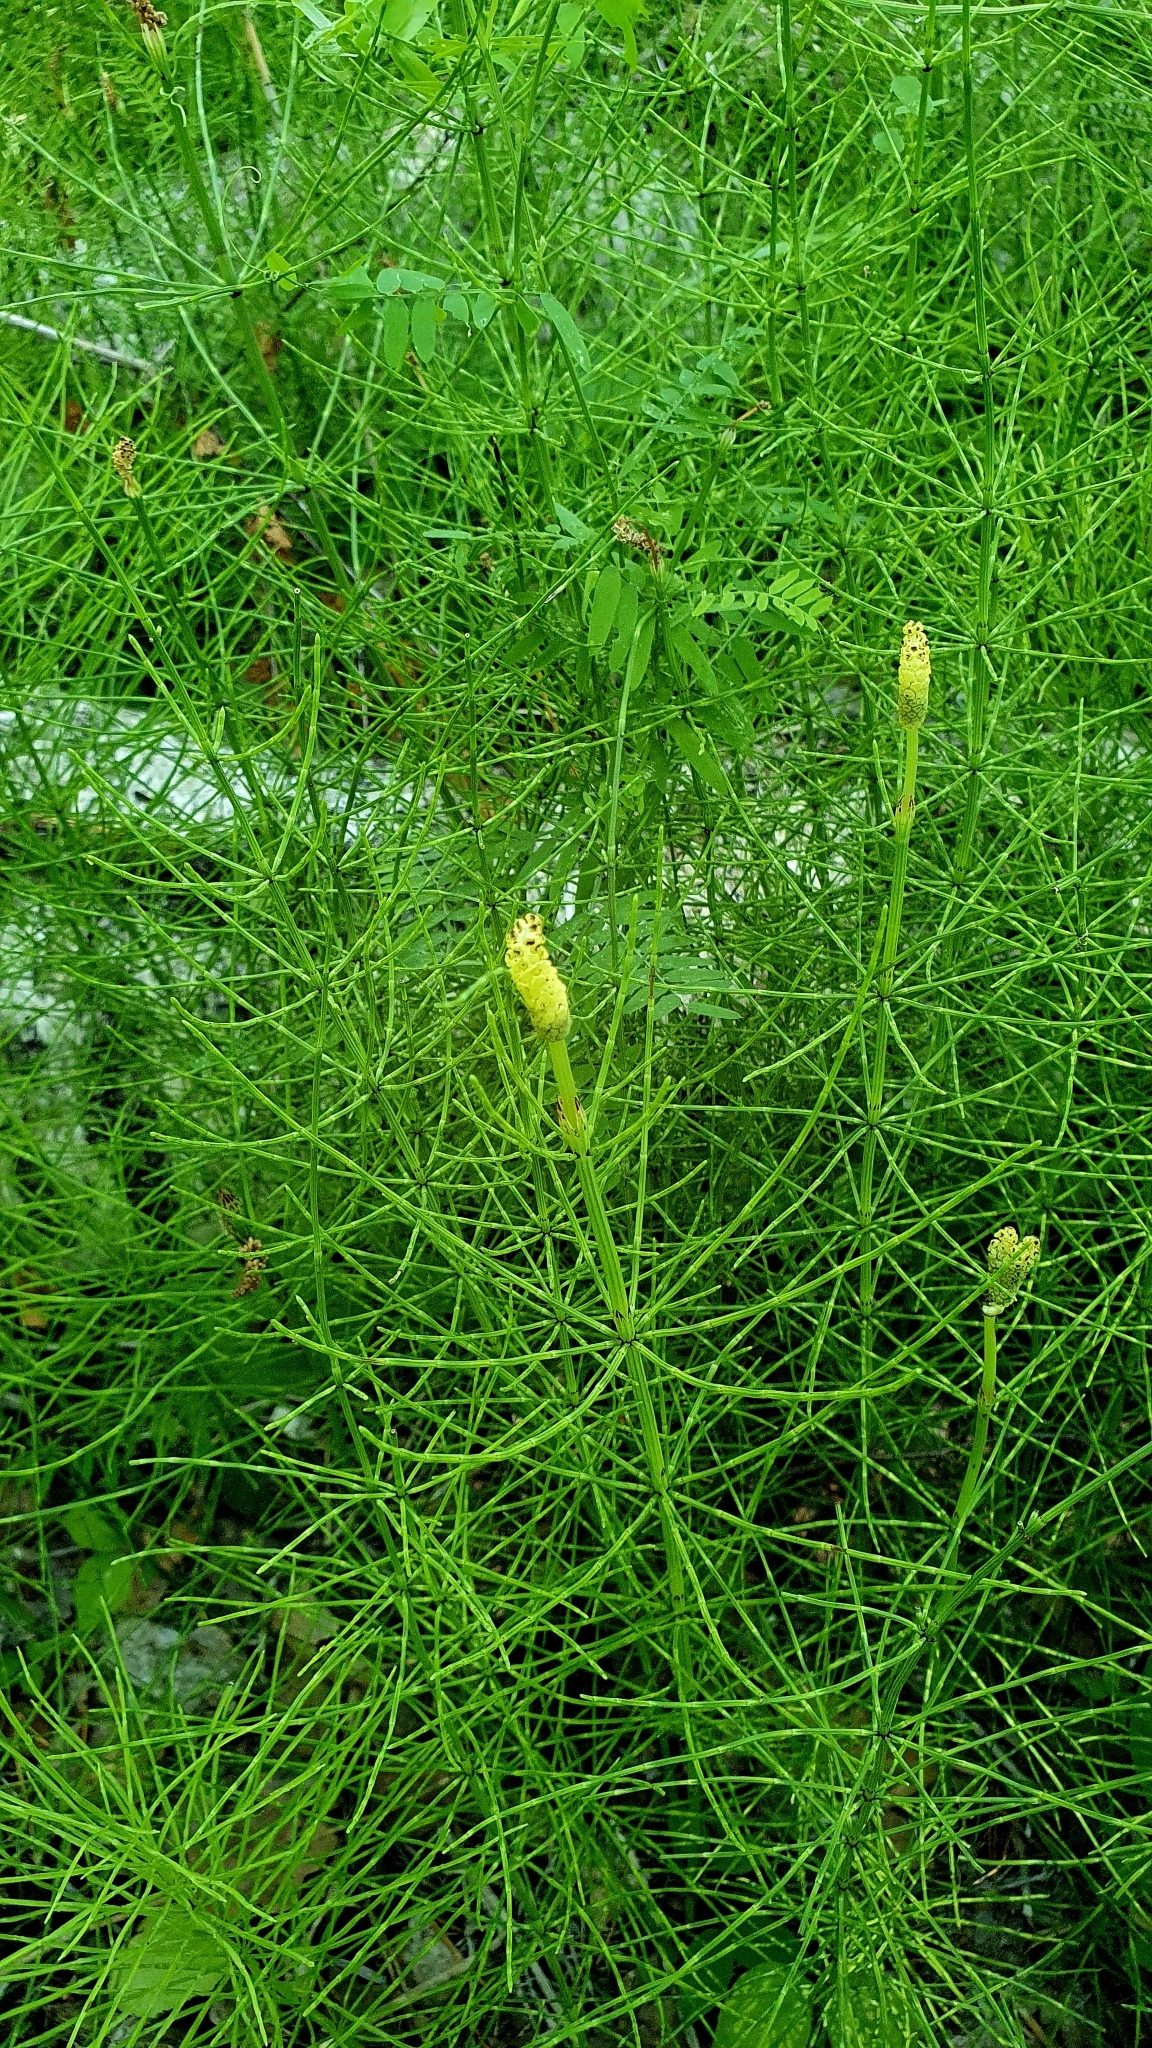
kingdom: Plantae
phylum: Tracheophyta
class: Polypodiopsida
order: Equisetales
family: Equisetaceae
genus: Equisetum
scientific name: Equisetum palustre
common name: Marsh horsetail
